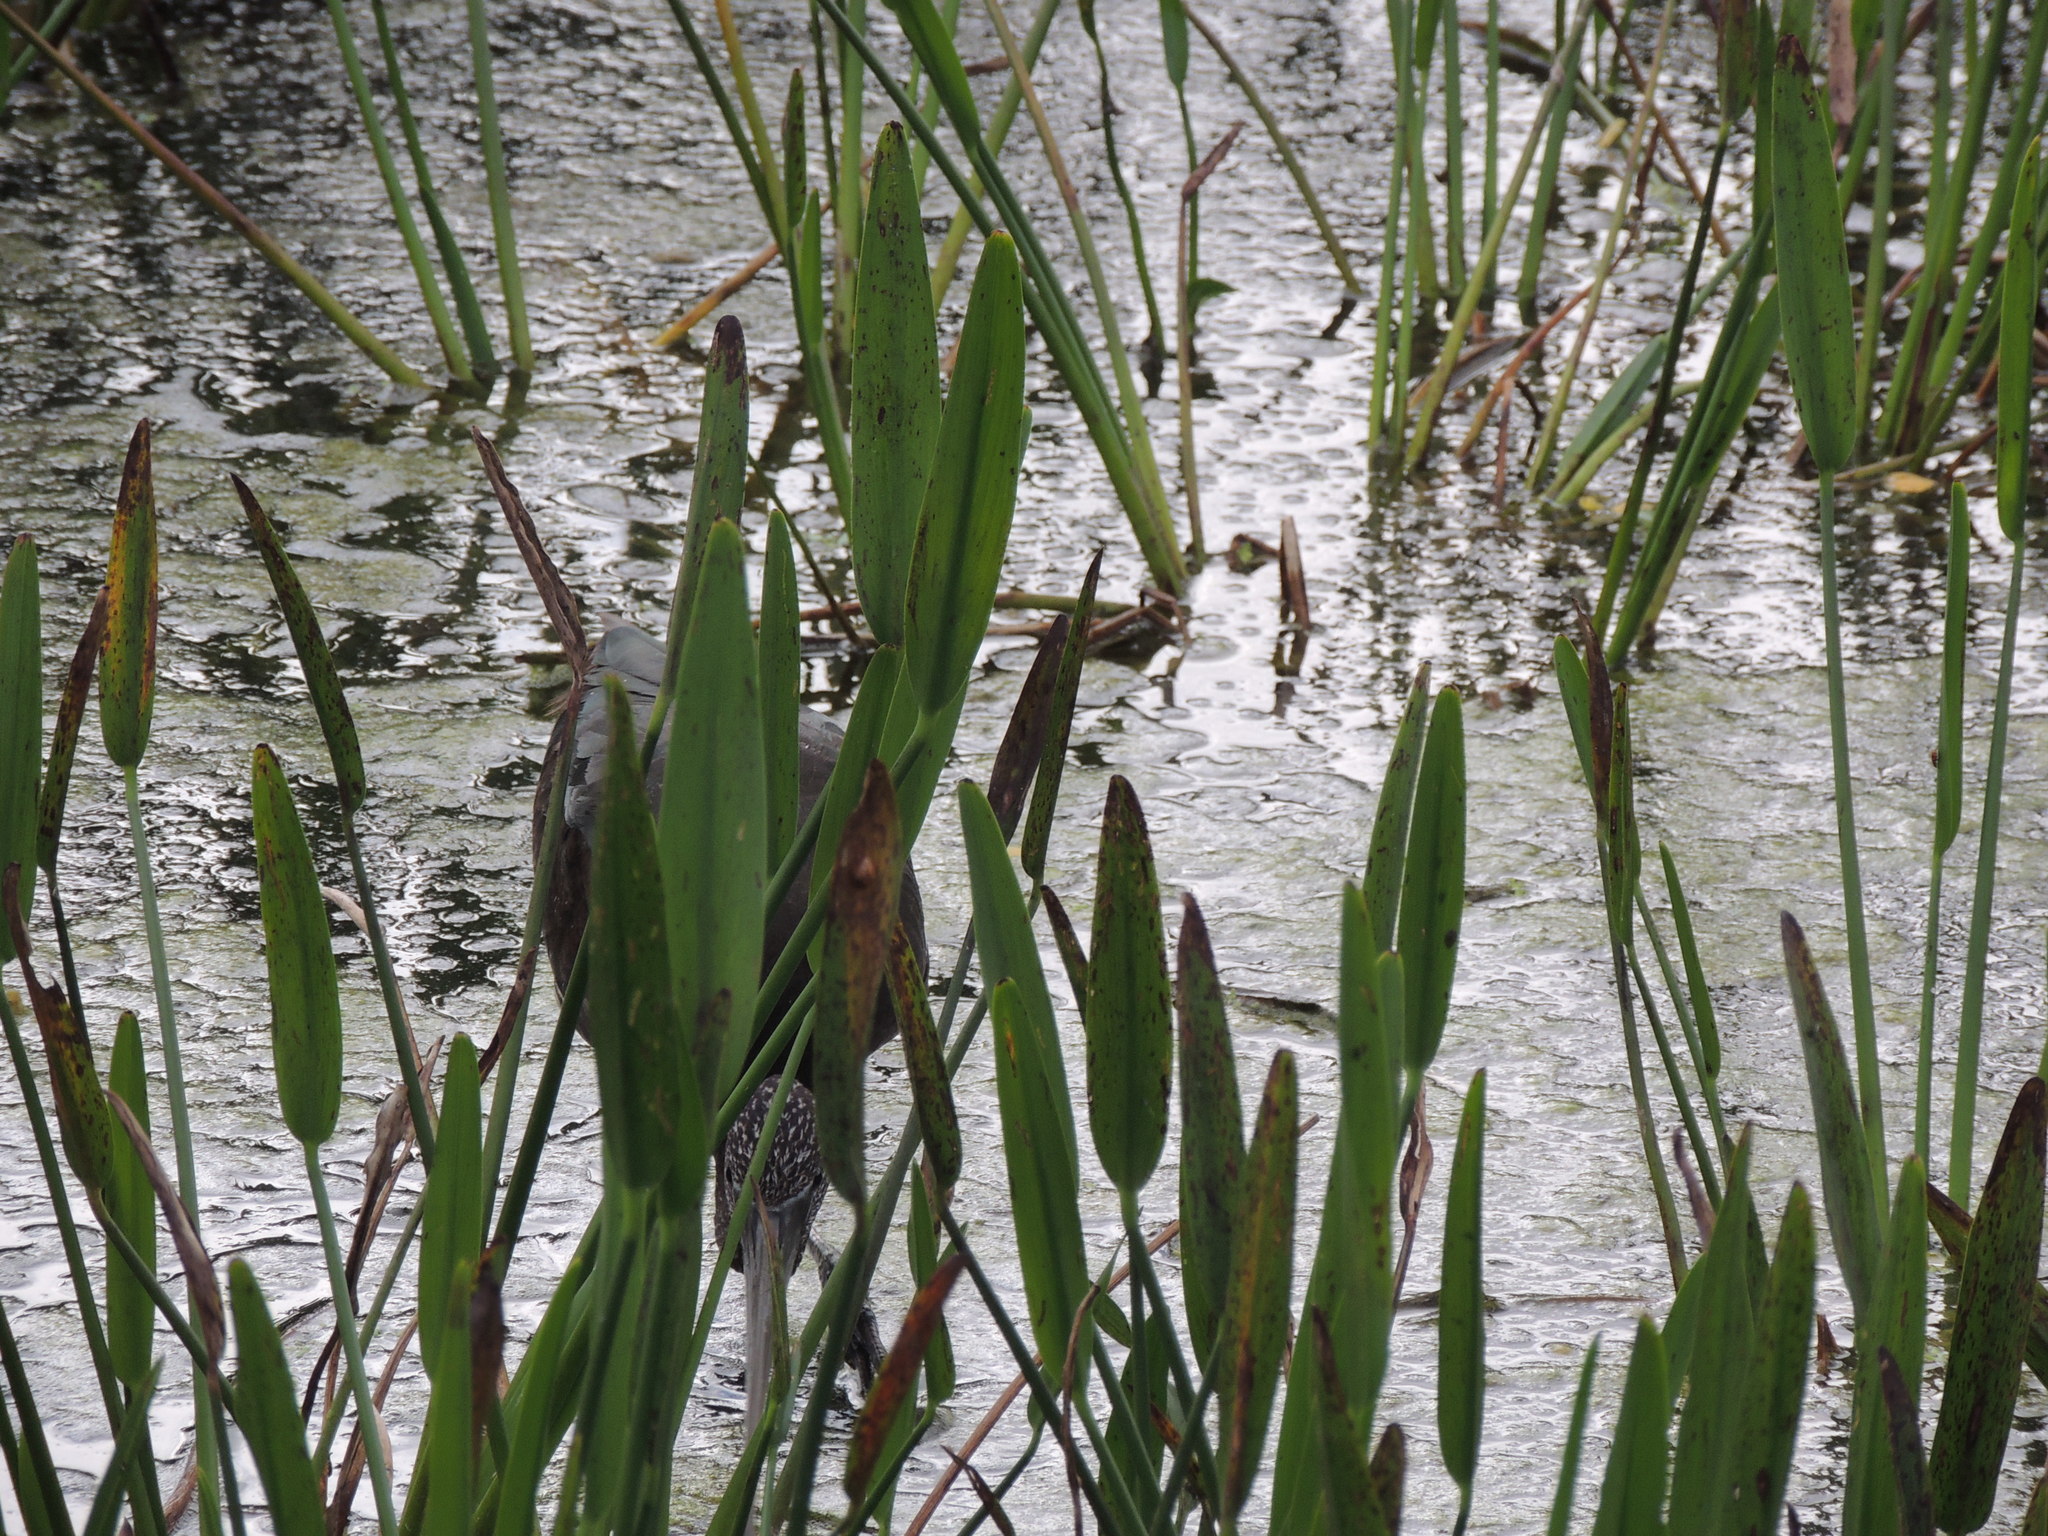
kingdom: Animalia
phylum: Chordata
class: Aves
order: Gruiformes
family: Aramidae
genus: Aramus
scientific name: Aramus guarauna
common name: Limpkin
